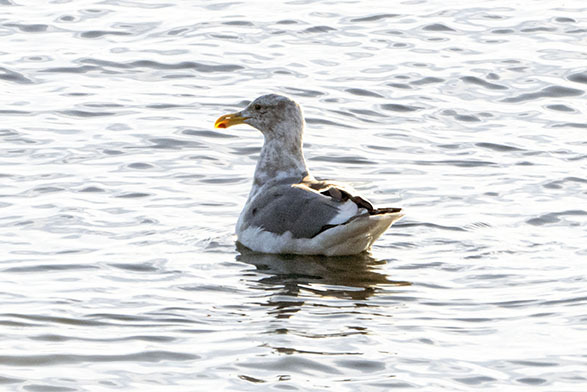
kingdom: Animalia
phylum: Chordata
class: Aves
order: Charadriiformes
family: Laridae
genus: Larus
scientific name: Larus glaucescens
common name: Glaucous-winged gull
